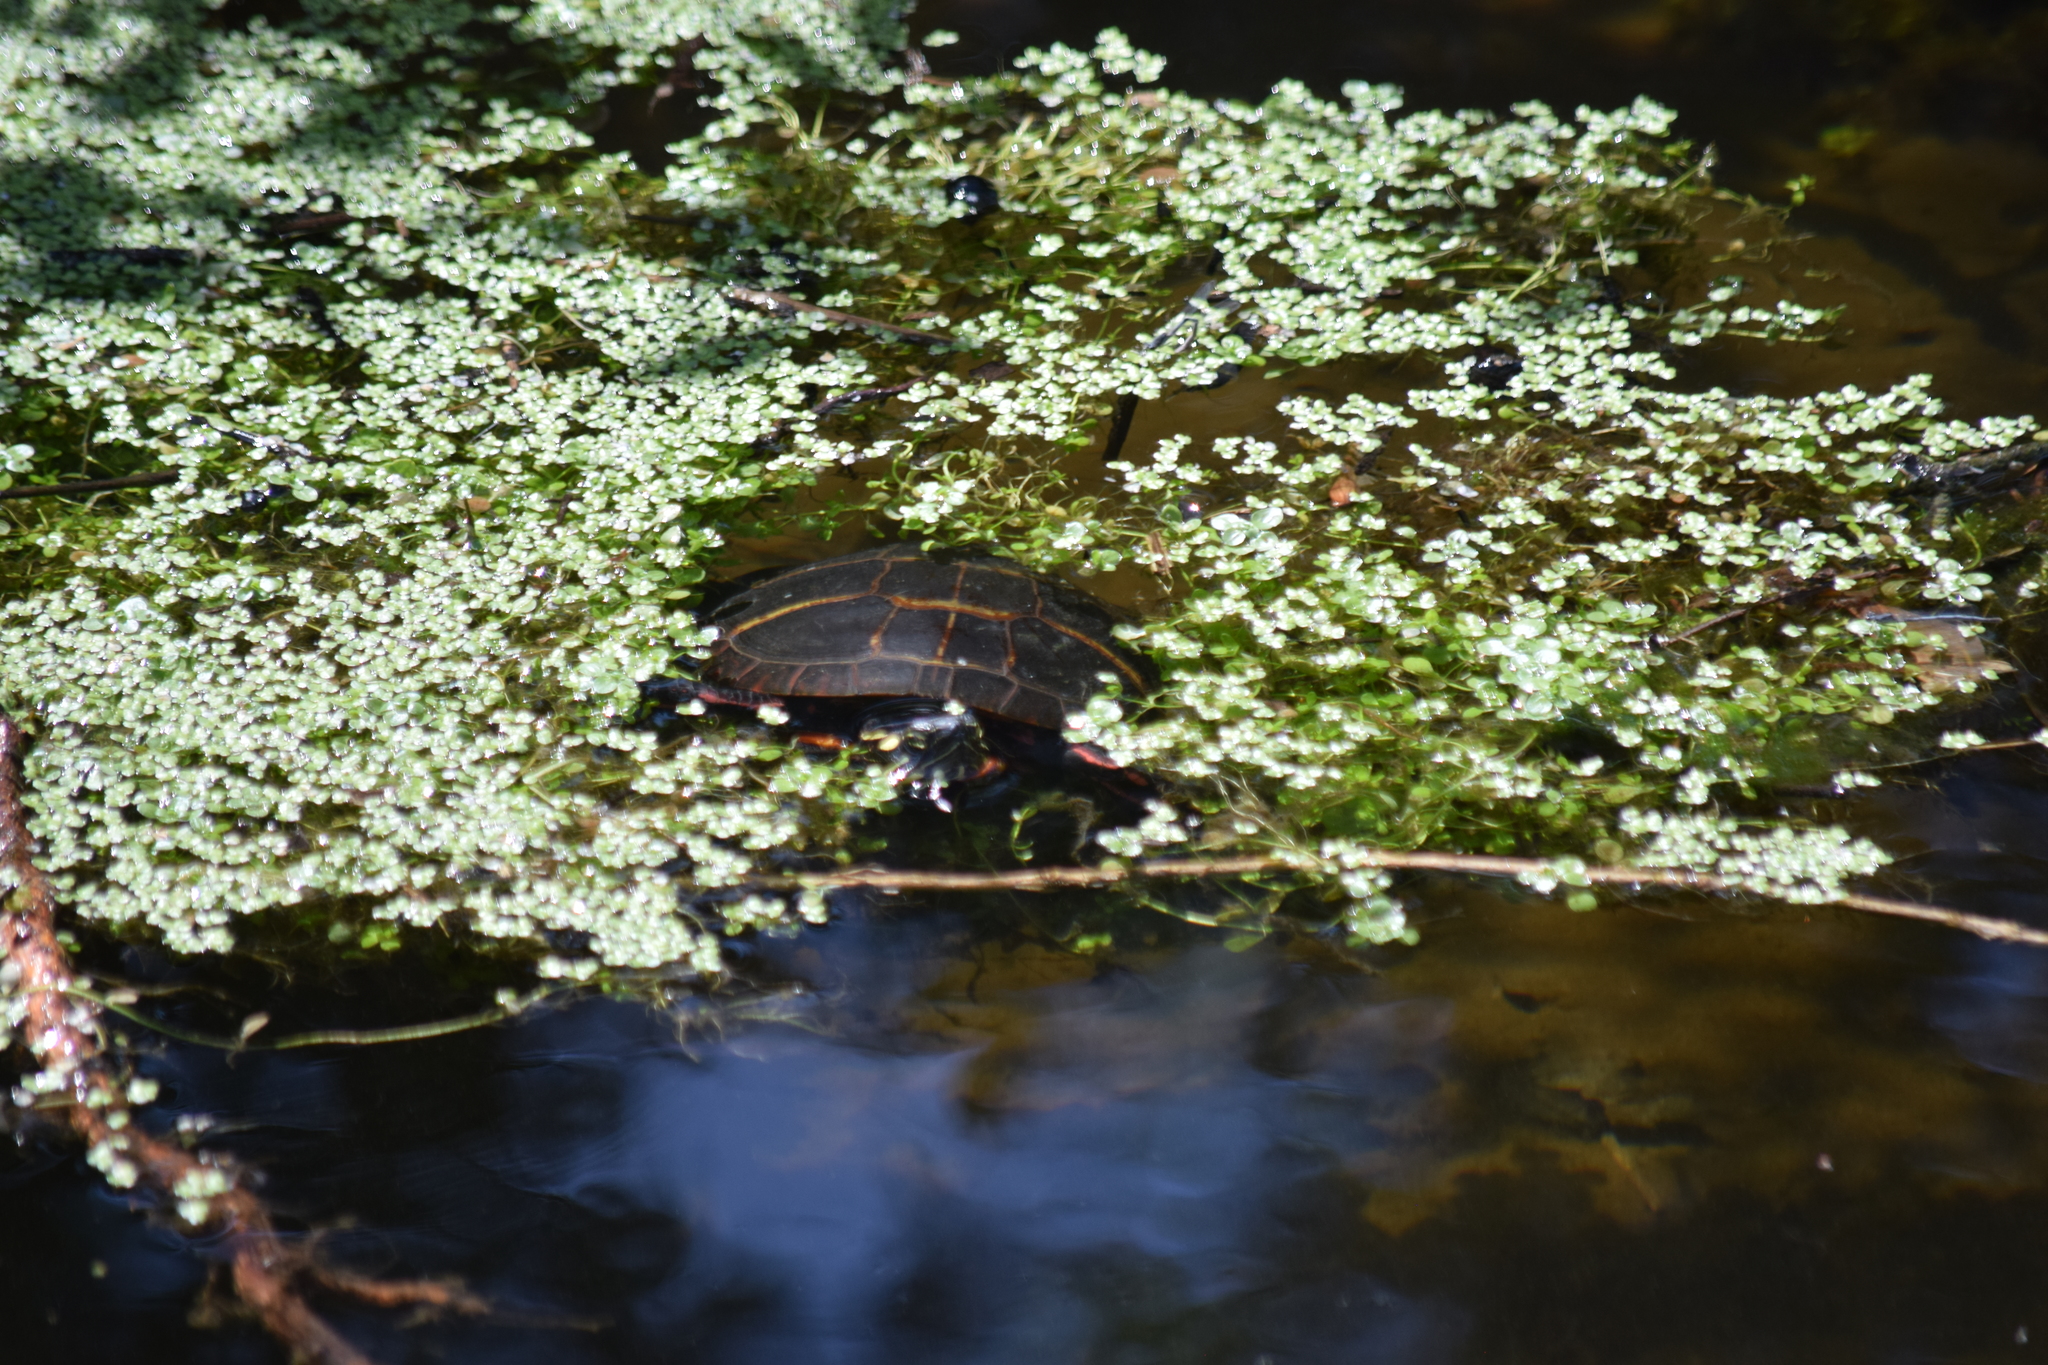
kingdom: Animalia
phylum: Chordata
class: Testudines
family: Emydidae
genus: Chrysemys
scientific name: Chrysemys picta
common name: Painted turtle
